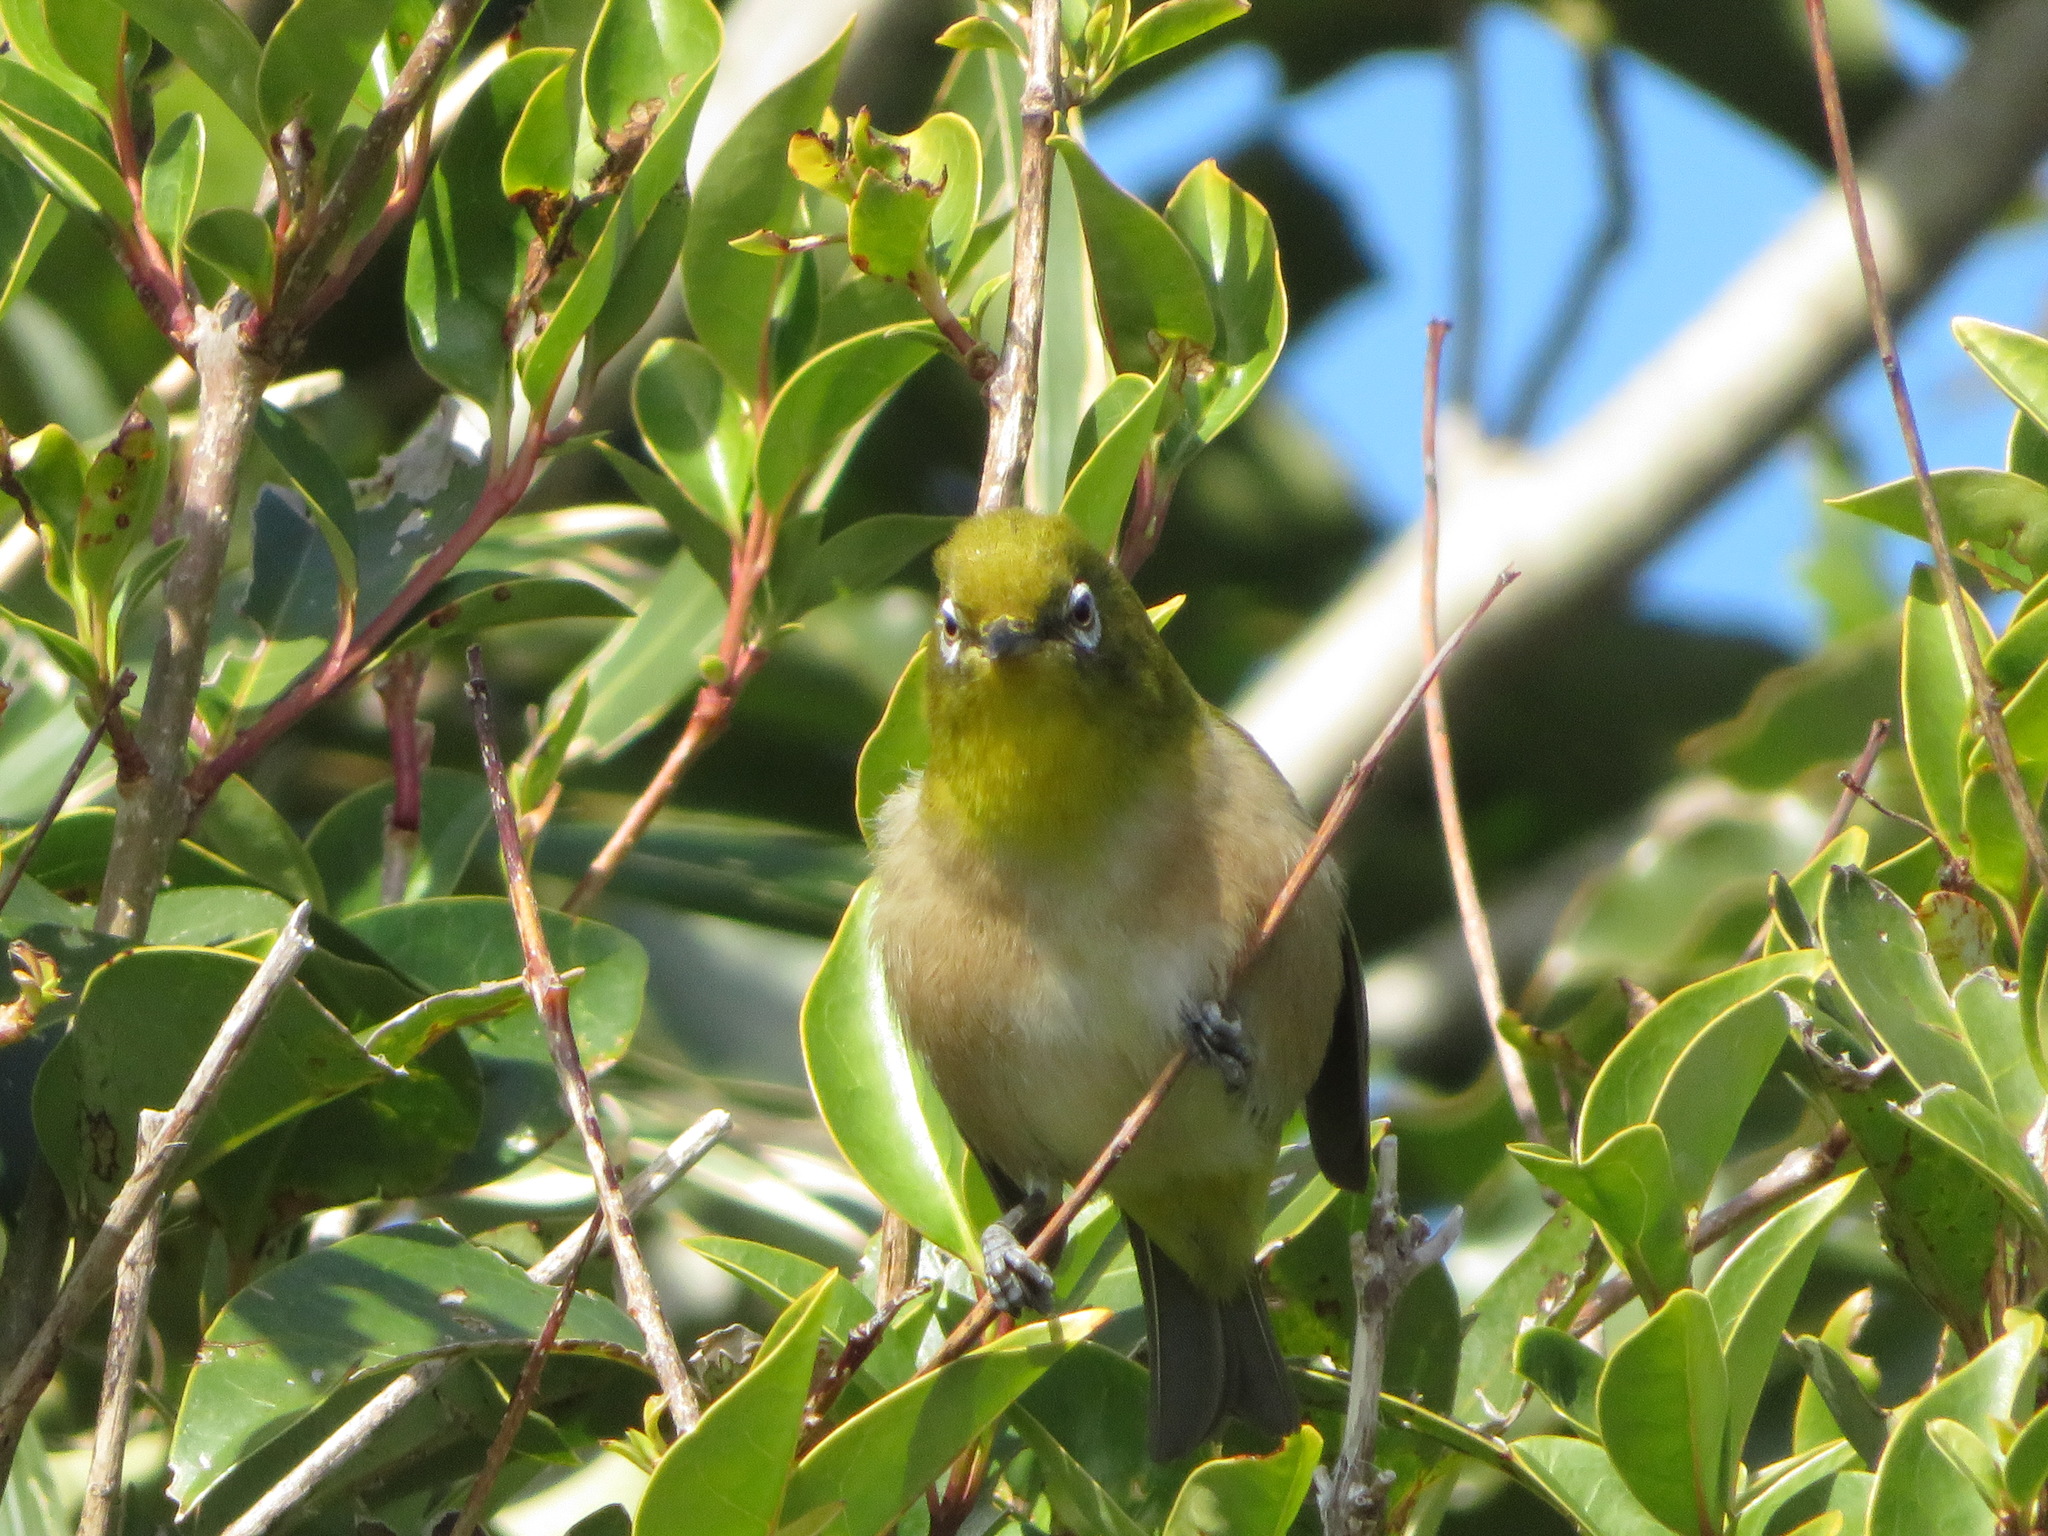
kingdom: Animalia
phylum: Chordata
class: Aves
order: Passeriformes
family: Zosteropidae
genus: Zosterops
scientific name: Zosterops japonicus
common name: Japanese white-eye
